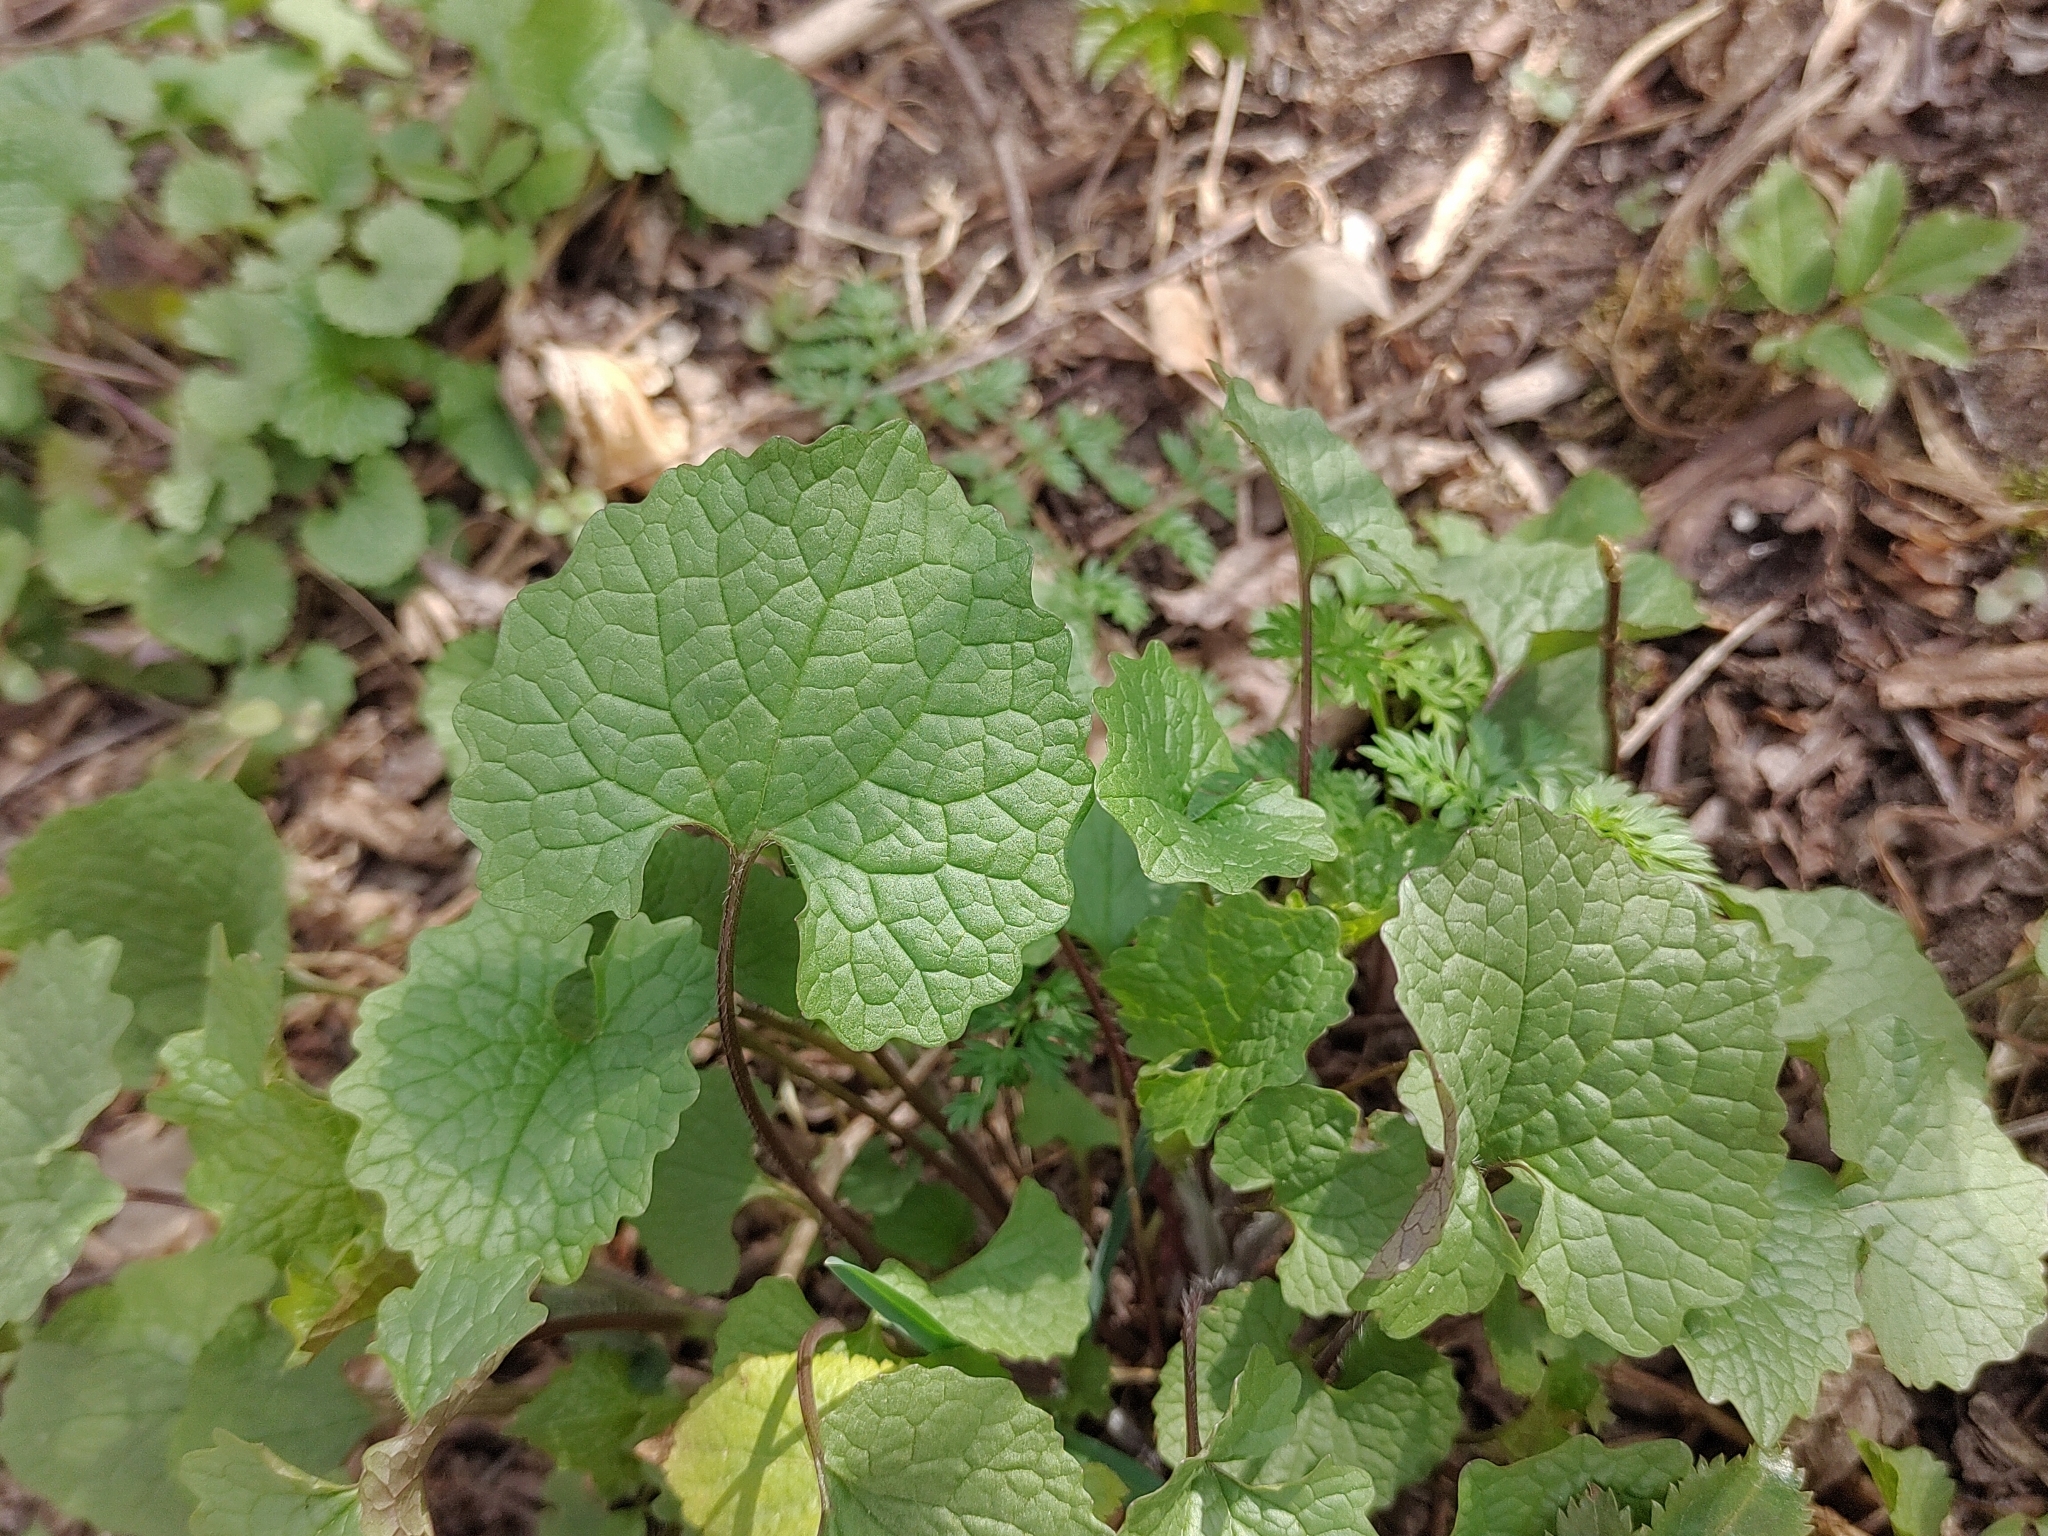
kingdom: Plantae
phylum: Tracheophyta
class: Magnoliopsida
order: Brassicales
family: Brassicaceae
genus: Alliaria
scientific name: Alliaria petiolata
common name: Garlic mustard
